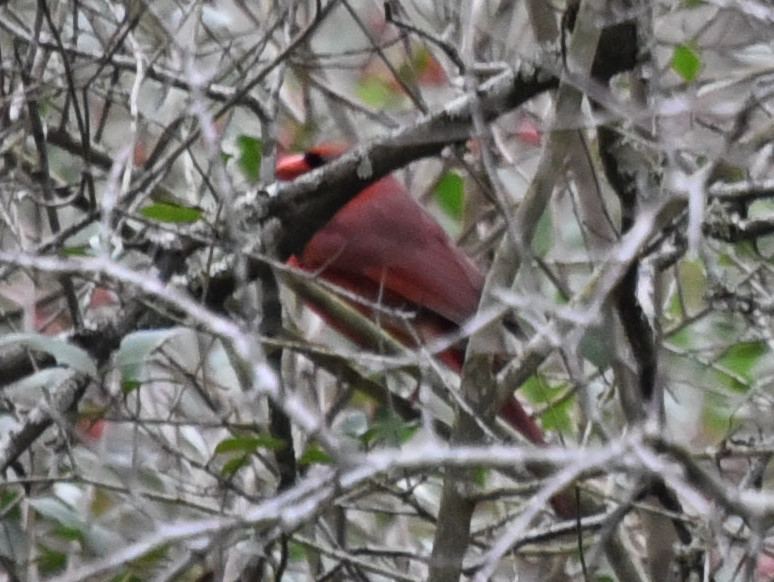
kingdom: Animalia
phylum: Chordata
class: Aves
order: Passeriformes
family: Cardinalidae
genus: Cardinalis
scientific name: Cardinalis cardinalis
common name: Northern cardinal
